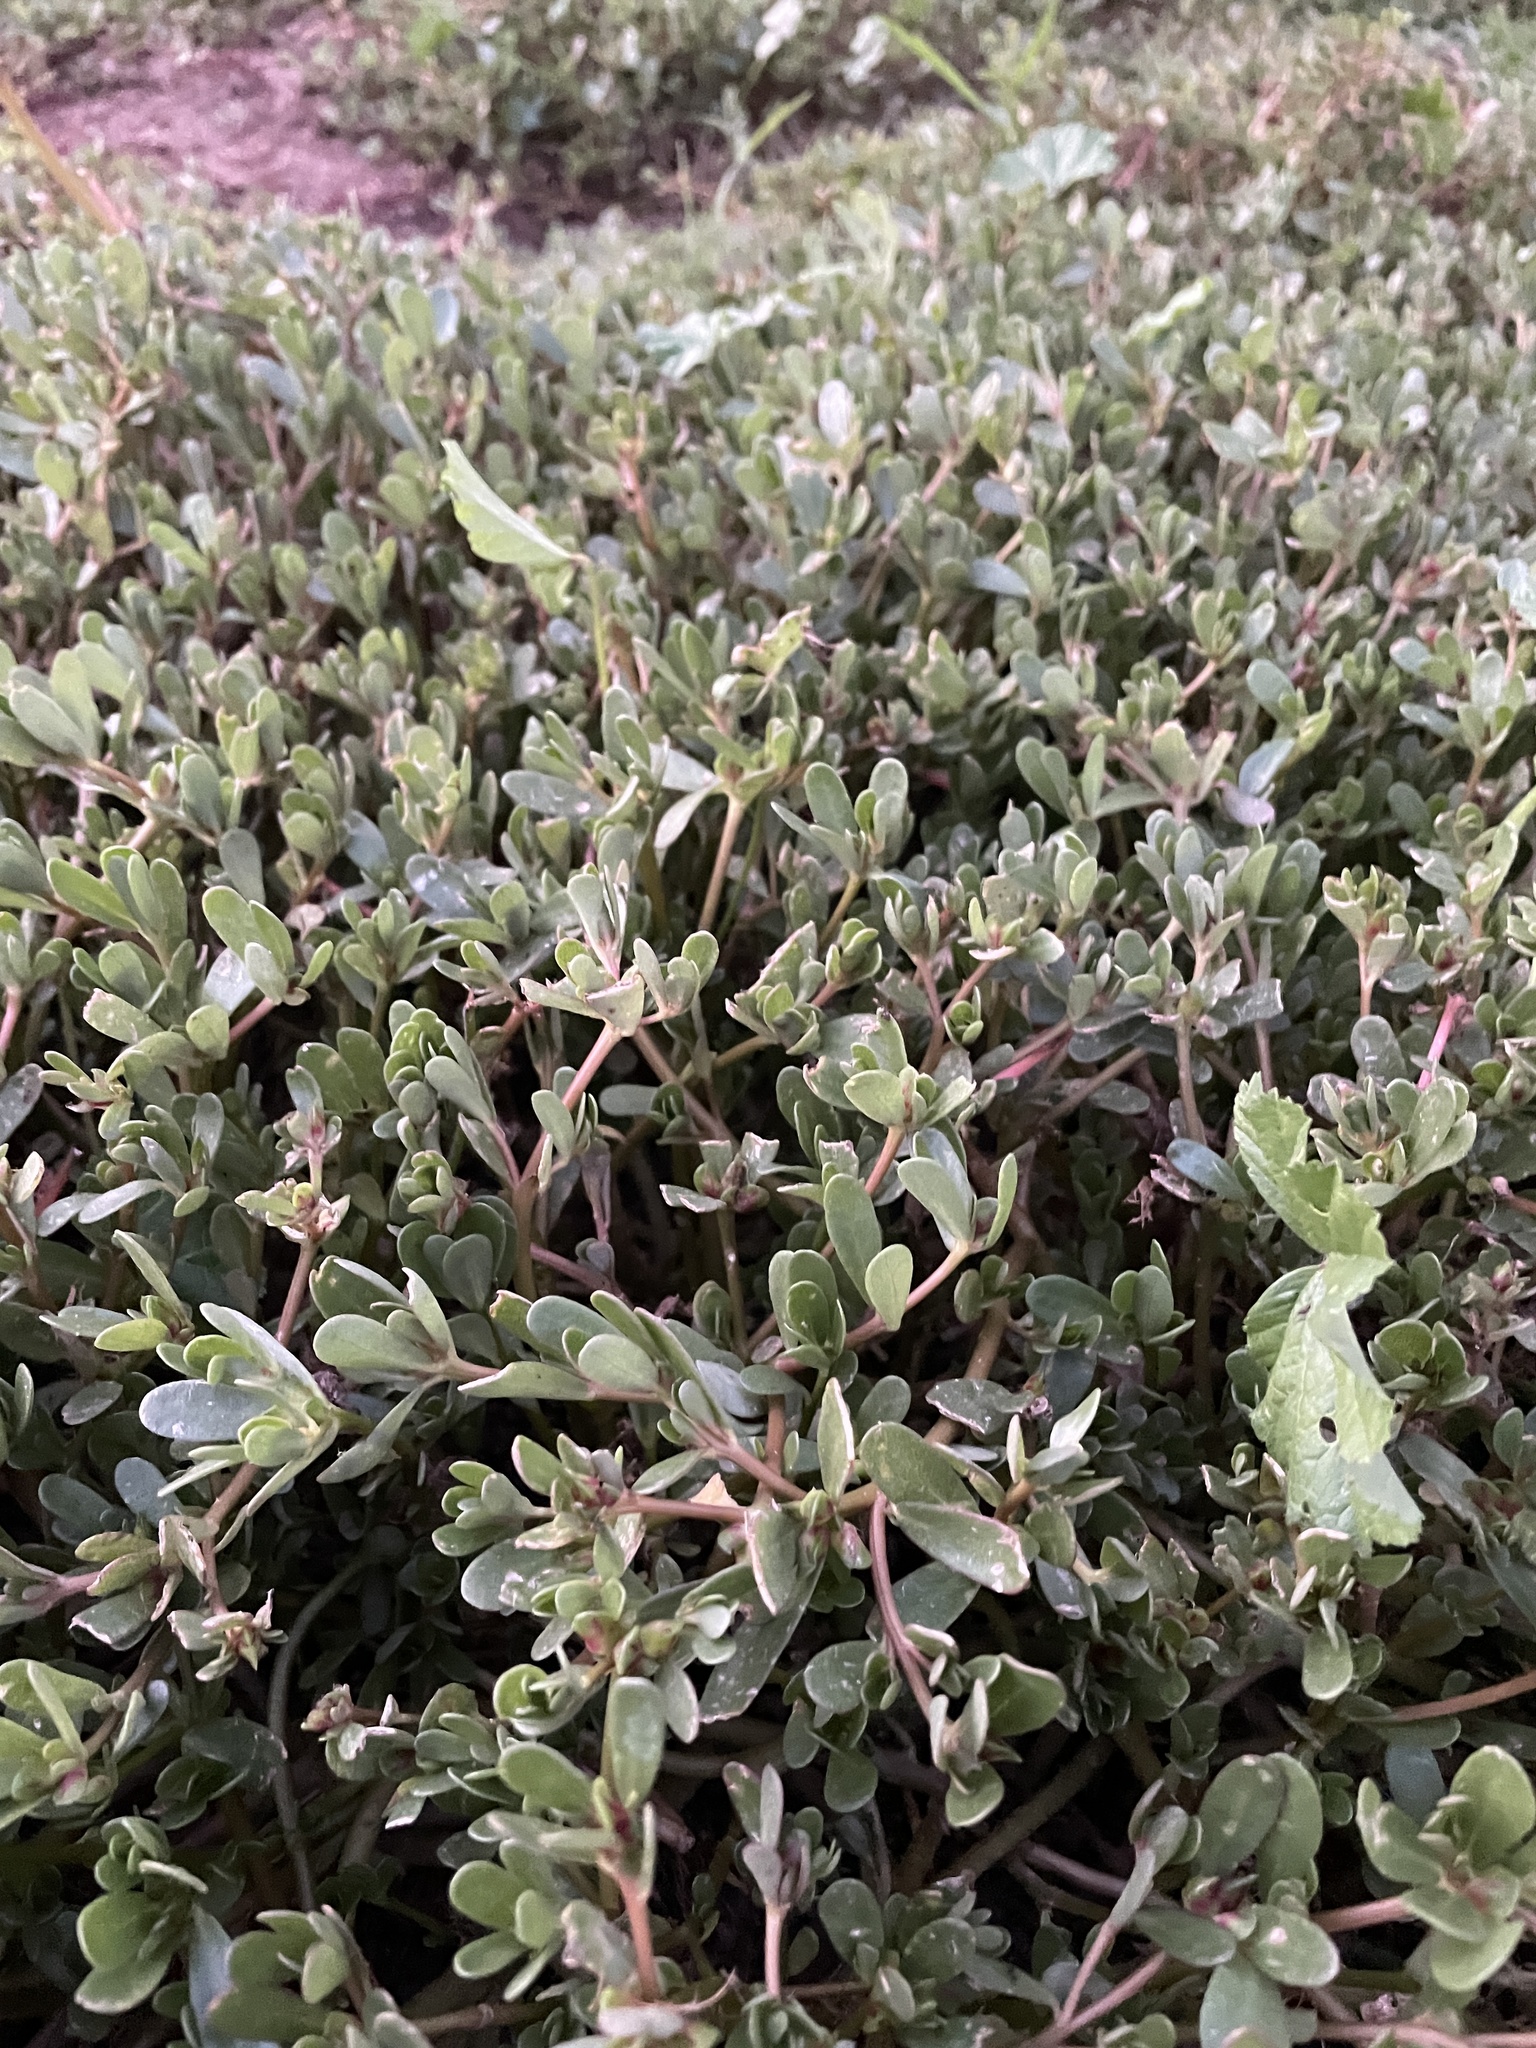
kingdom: Plantae
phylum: Tracheophyta
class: Magnoliopsida
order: Caryophyllales
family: Portulacaceae
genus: Portulaca
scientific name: Portulaca oleracea
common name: Common purslane
